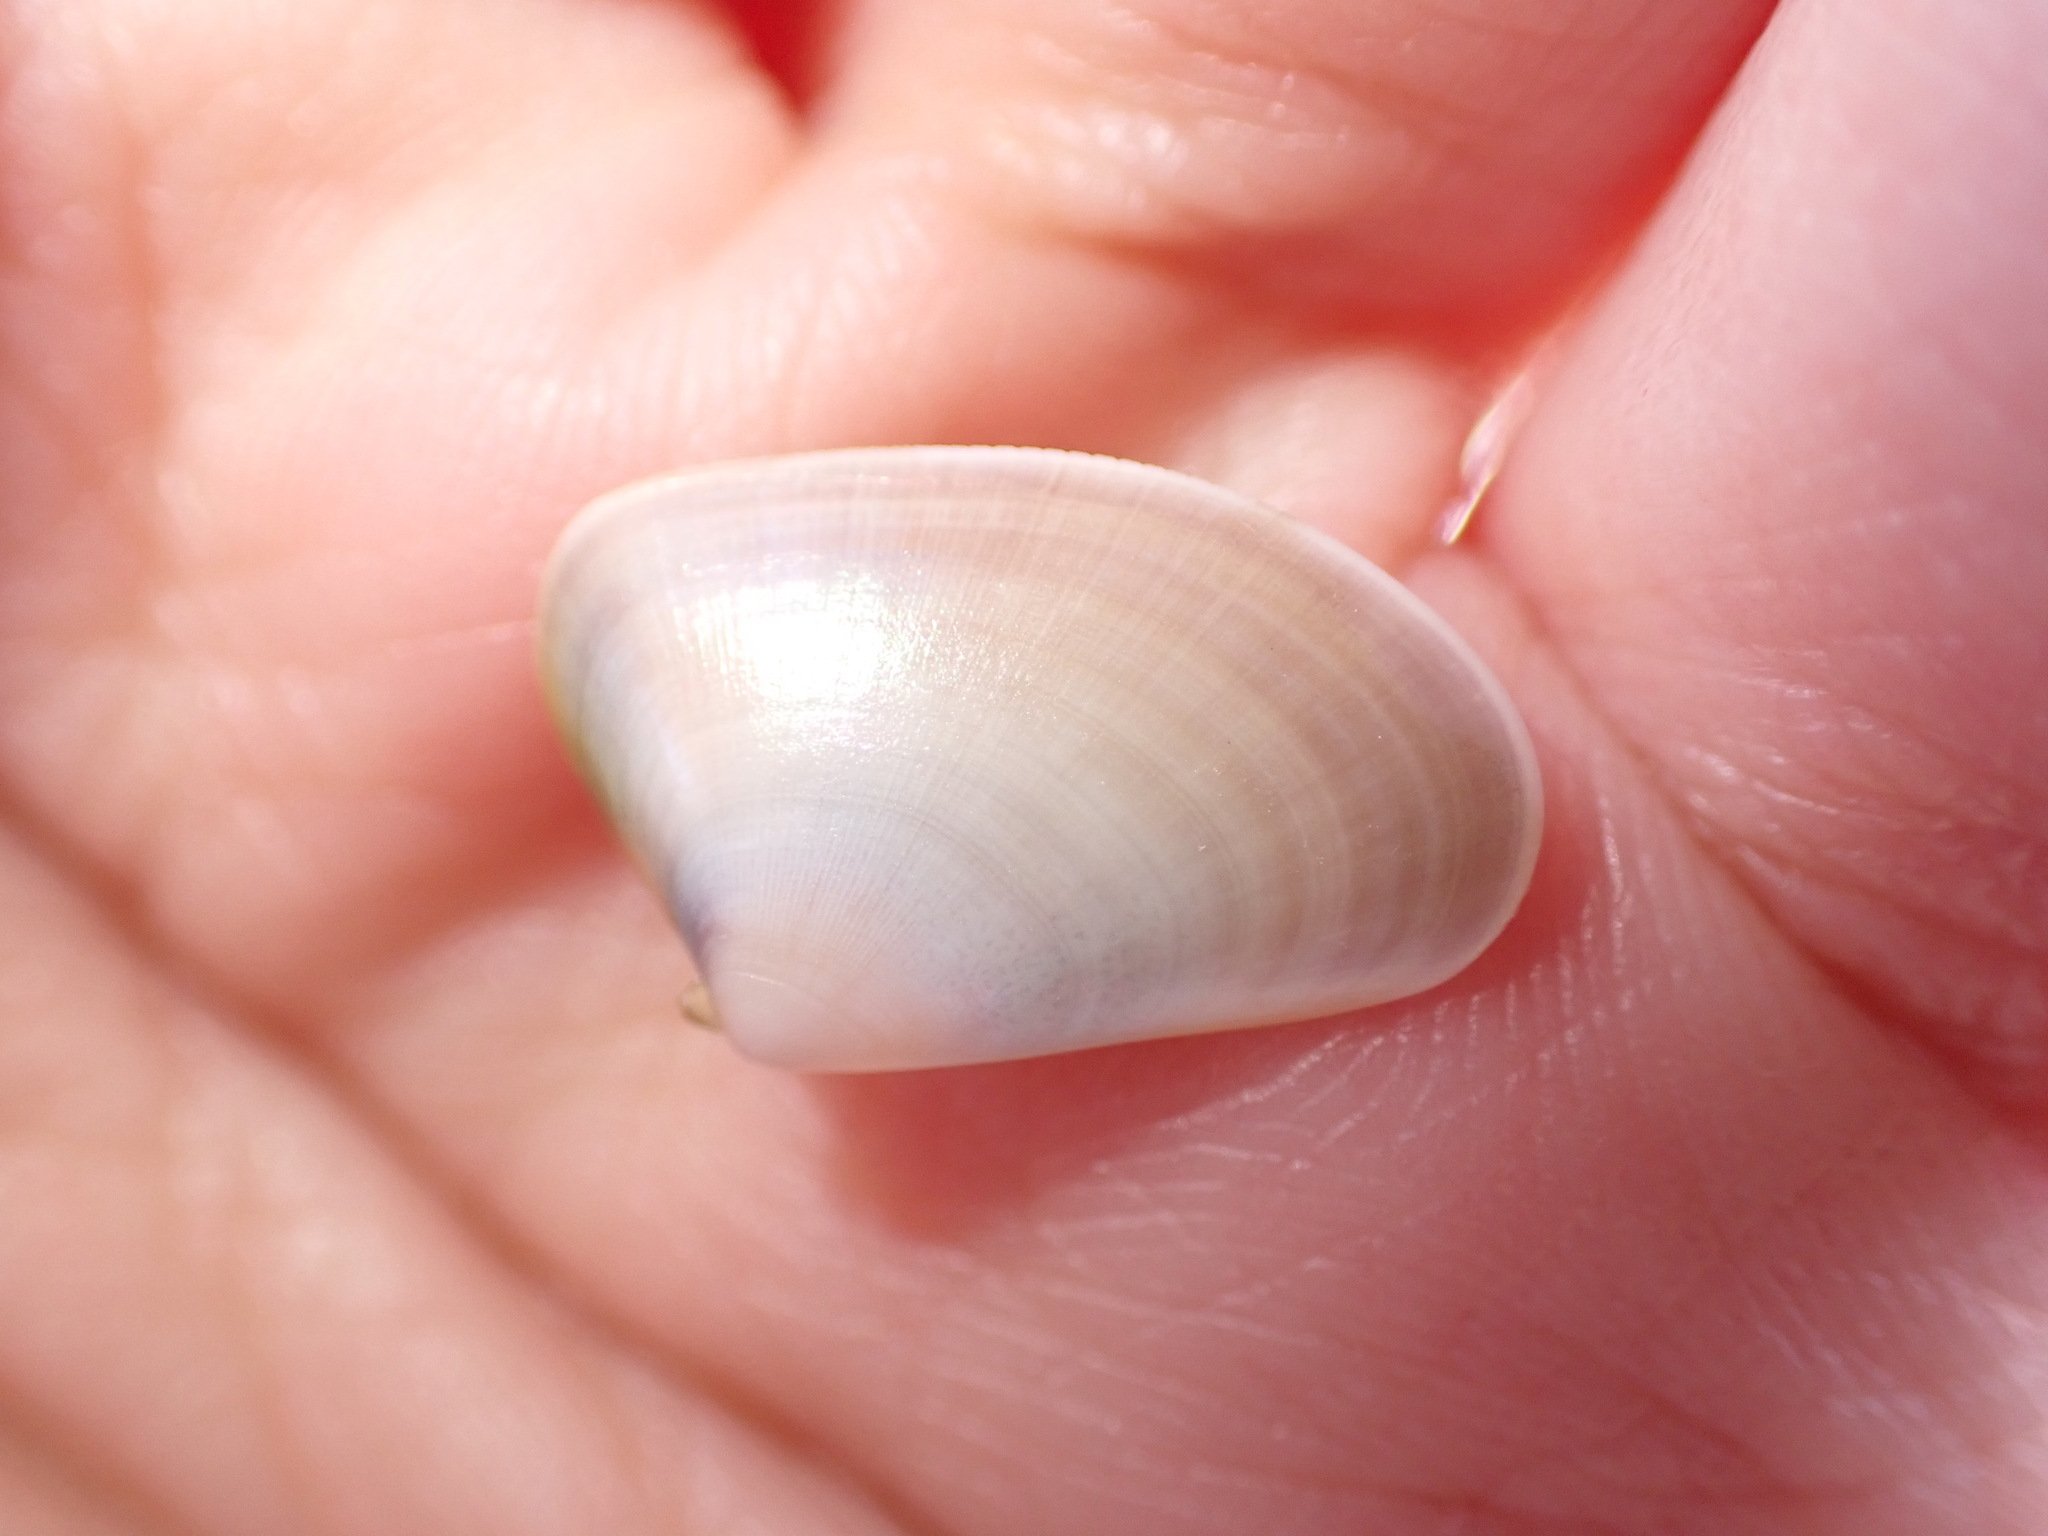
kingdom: Animalia
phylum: Mollusca
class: Bivalvia
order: Cardiida
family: Donacidae
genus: Donax
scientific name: Donax trunculus
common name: Truncate donax
